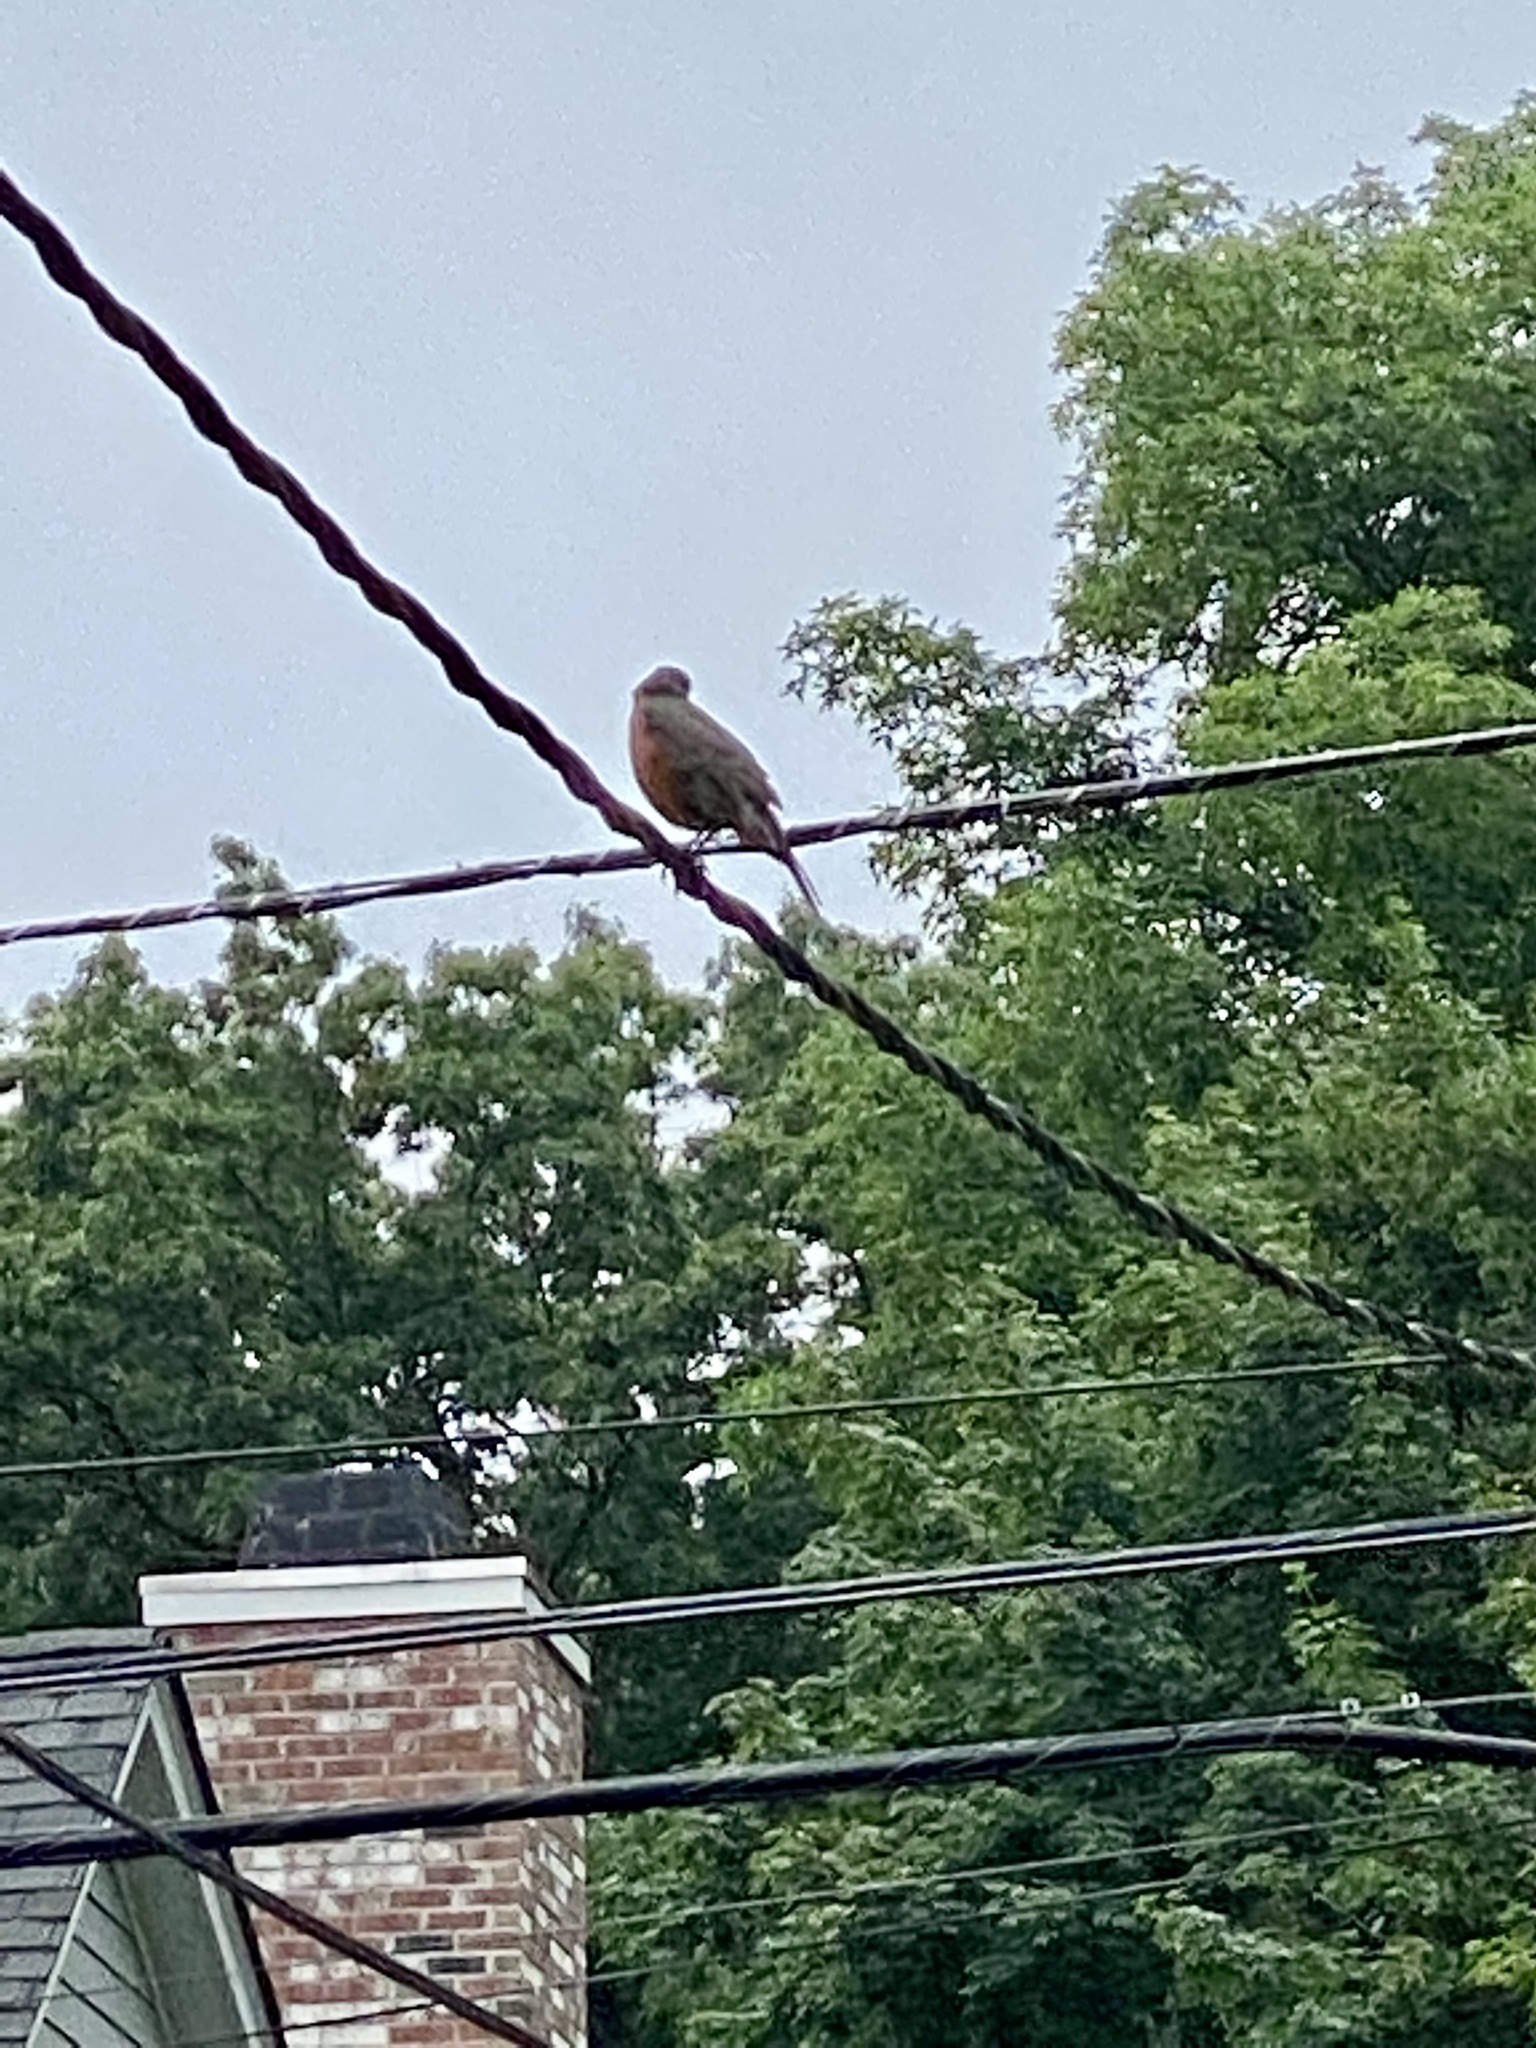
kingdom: Animalia
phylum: Chordata
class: Aves
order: Passeriformes
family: Turdidae
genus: Turdus
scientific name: Turdus migratorius
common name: American robin
